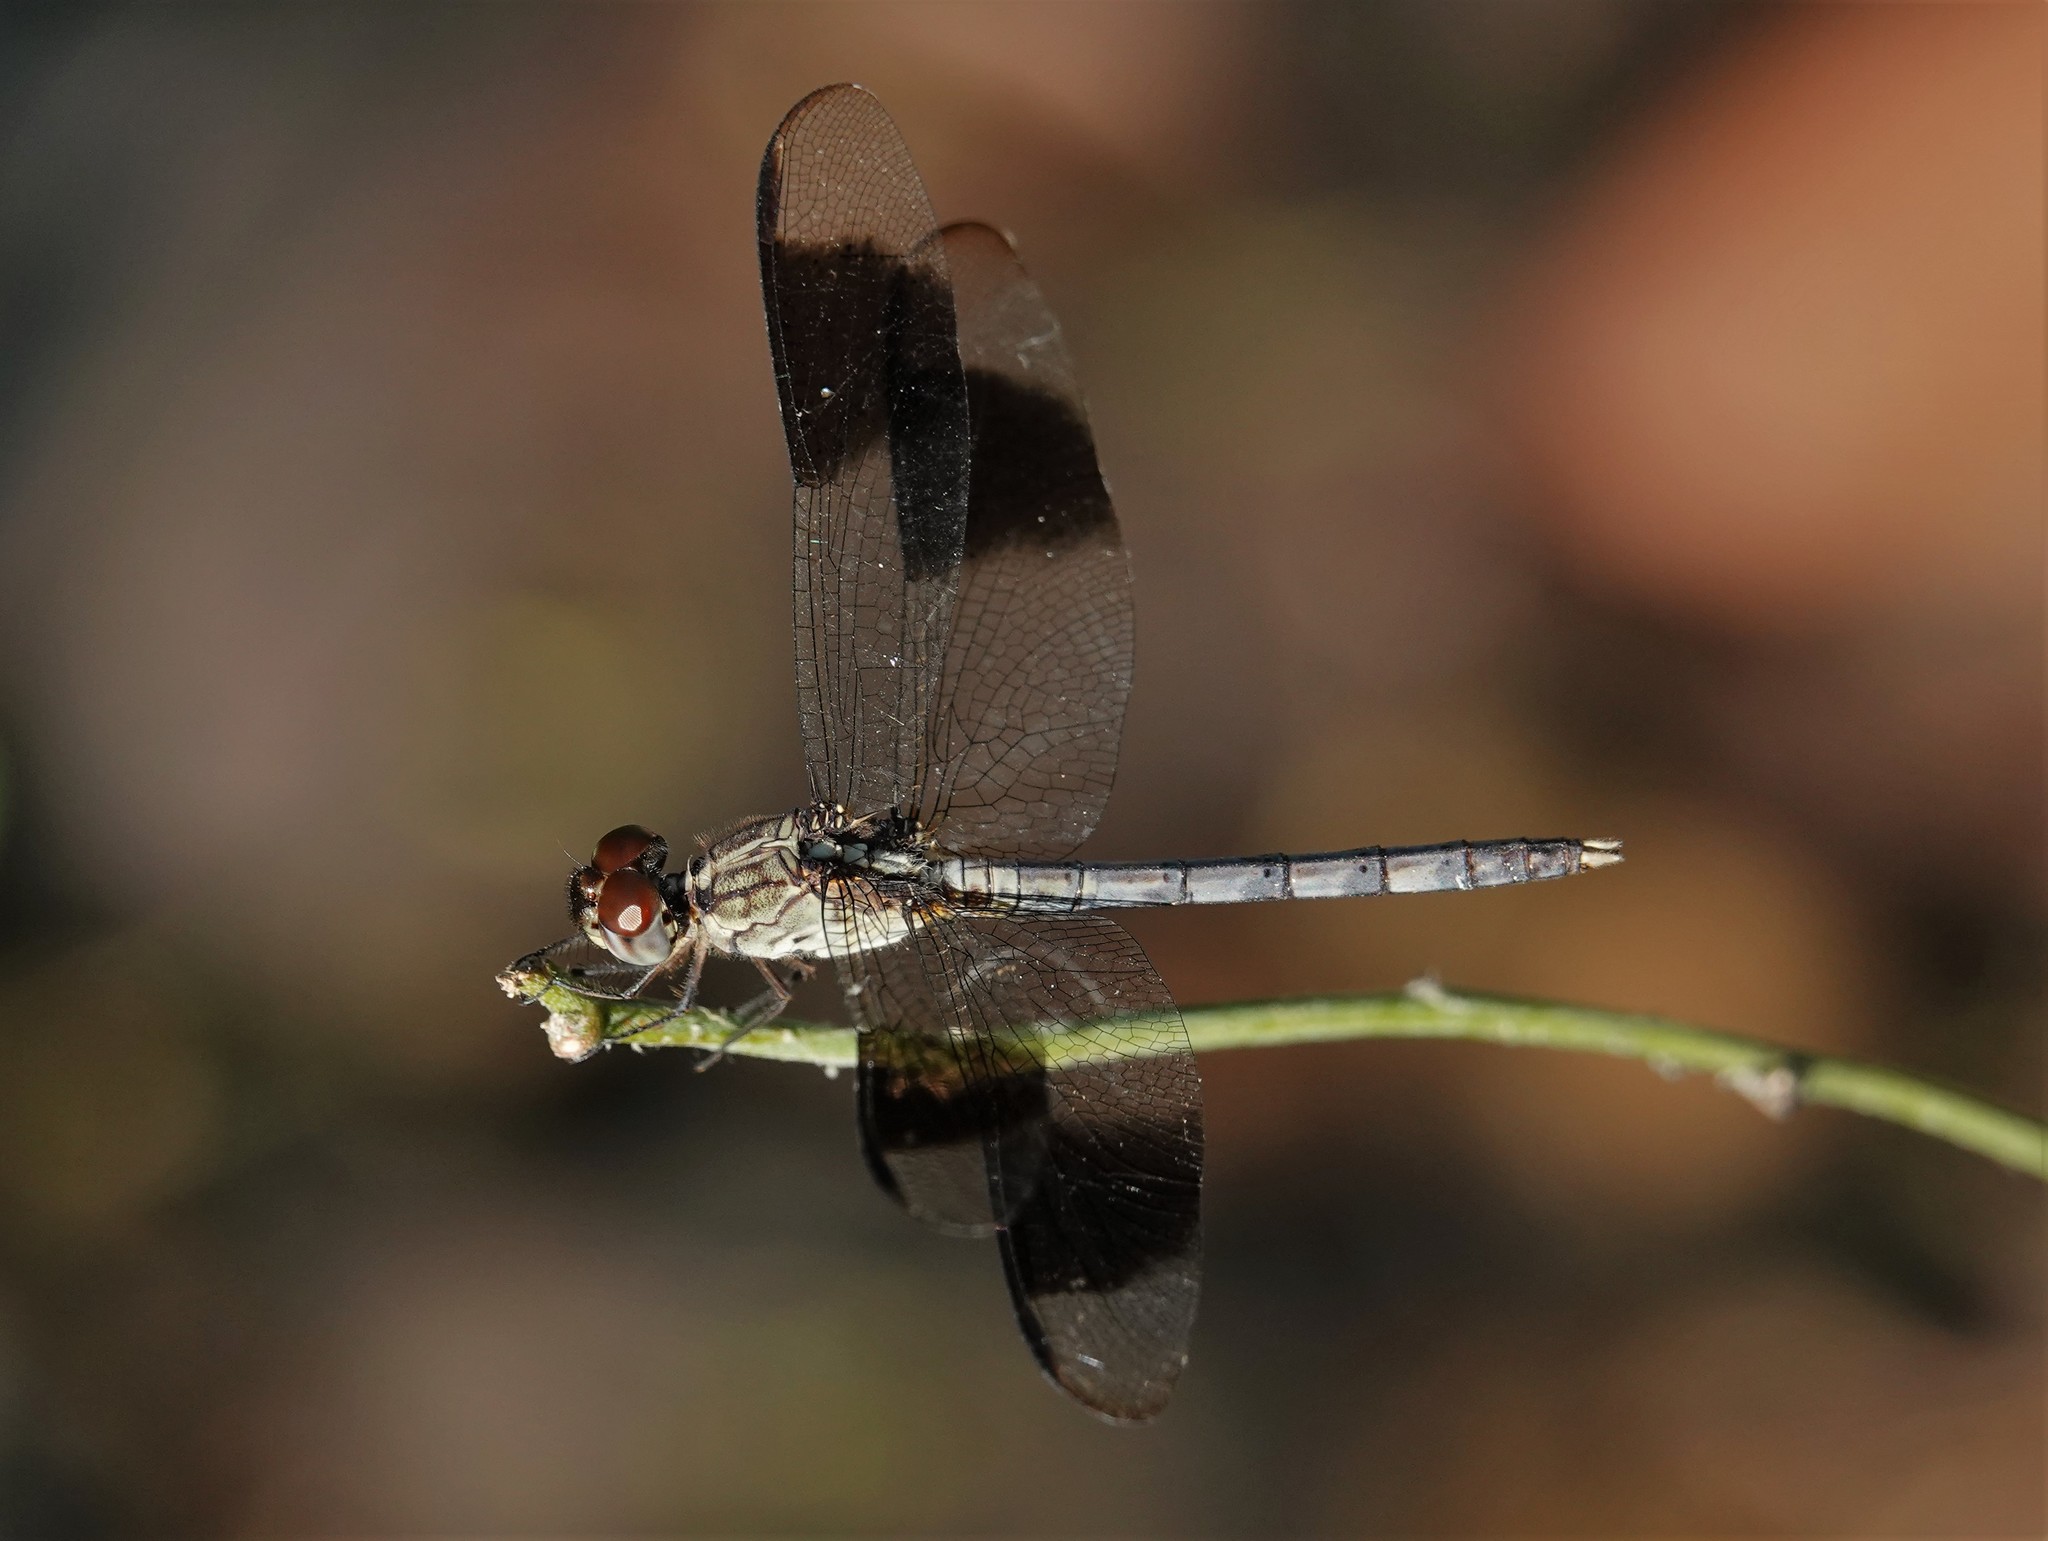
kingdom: Animalia
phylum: Arthropoda
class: Insecta
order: Odonata
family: Libellulidae
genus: Erythrodiplax
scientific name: Erythrodiplax umbrata
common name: Band-winged dragonlet
